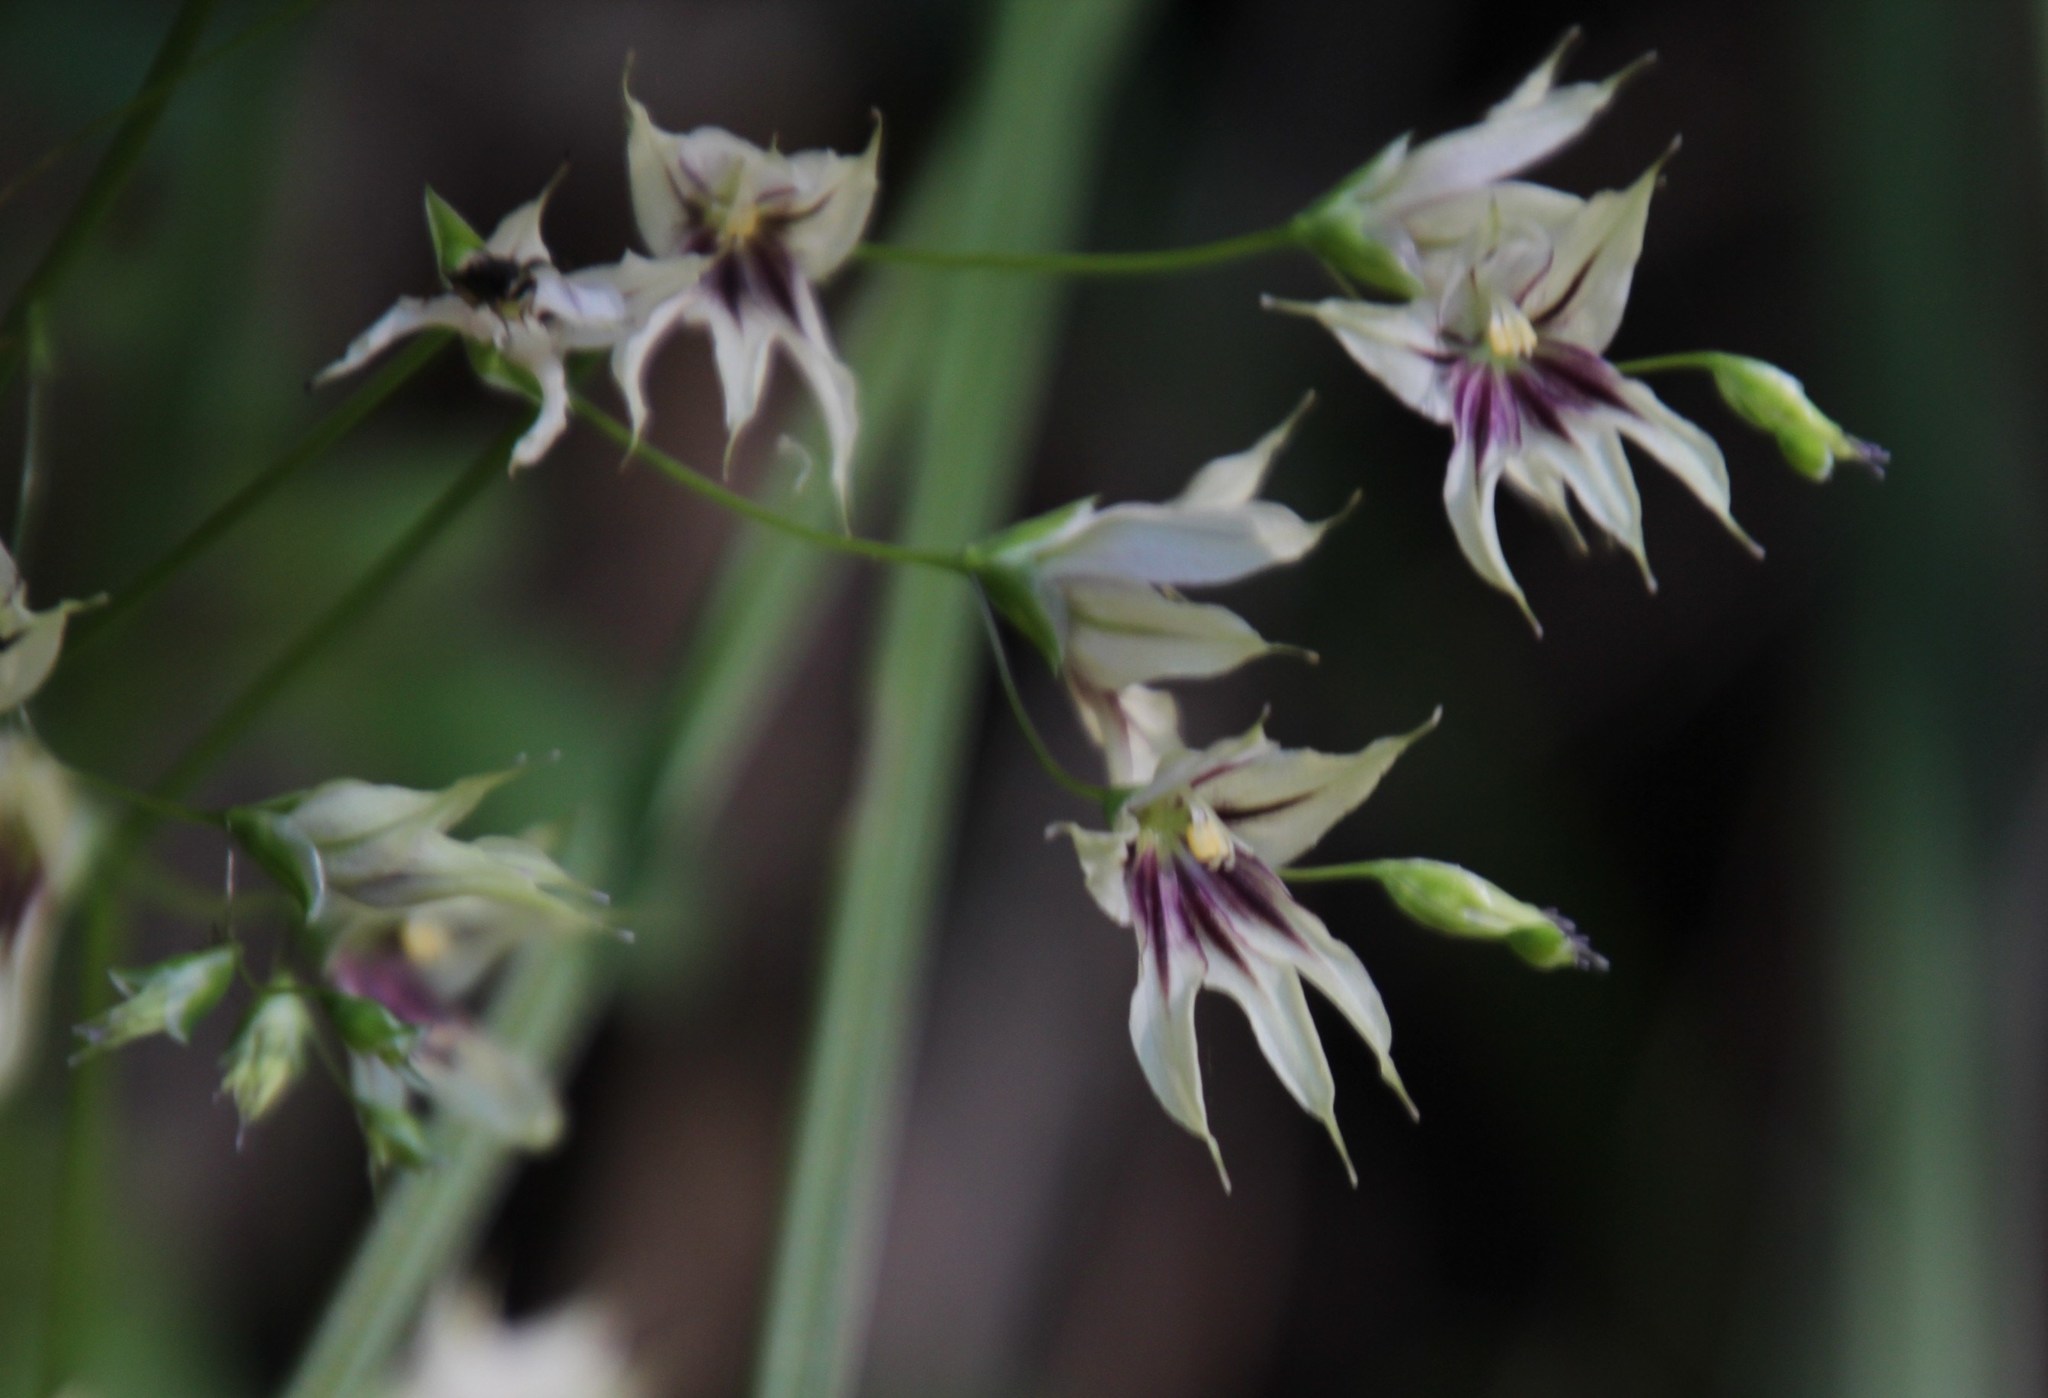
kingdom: Plantae
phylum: Tracheophyta
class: Liliopsida
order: Asparagales
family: Iridaceae
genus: Melasphaerula
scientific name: Melasphaerula graminea
